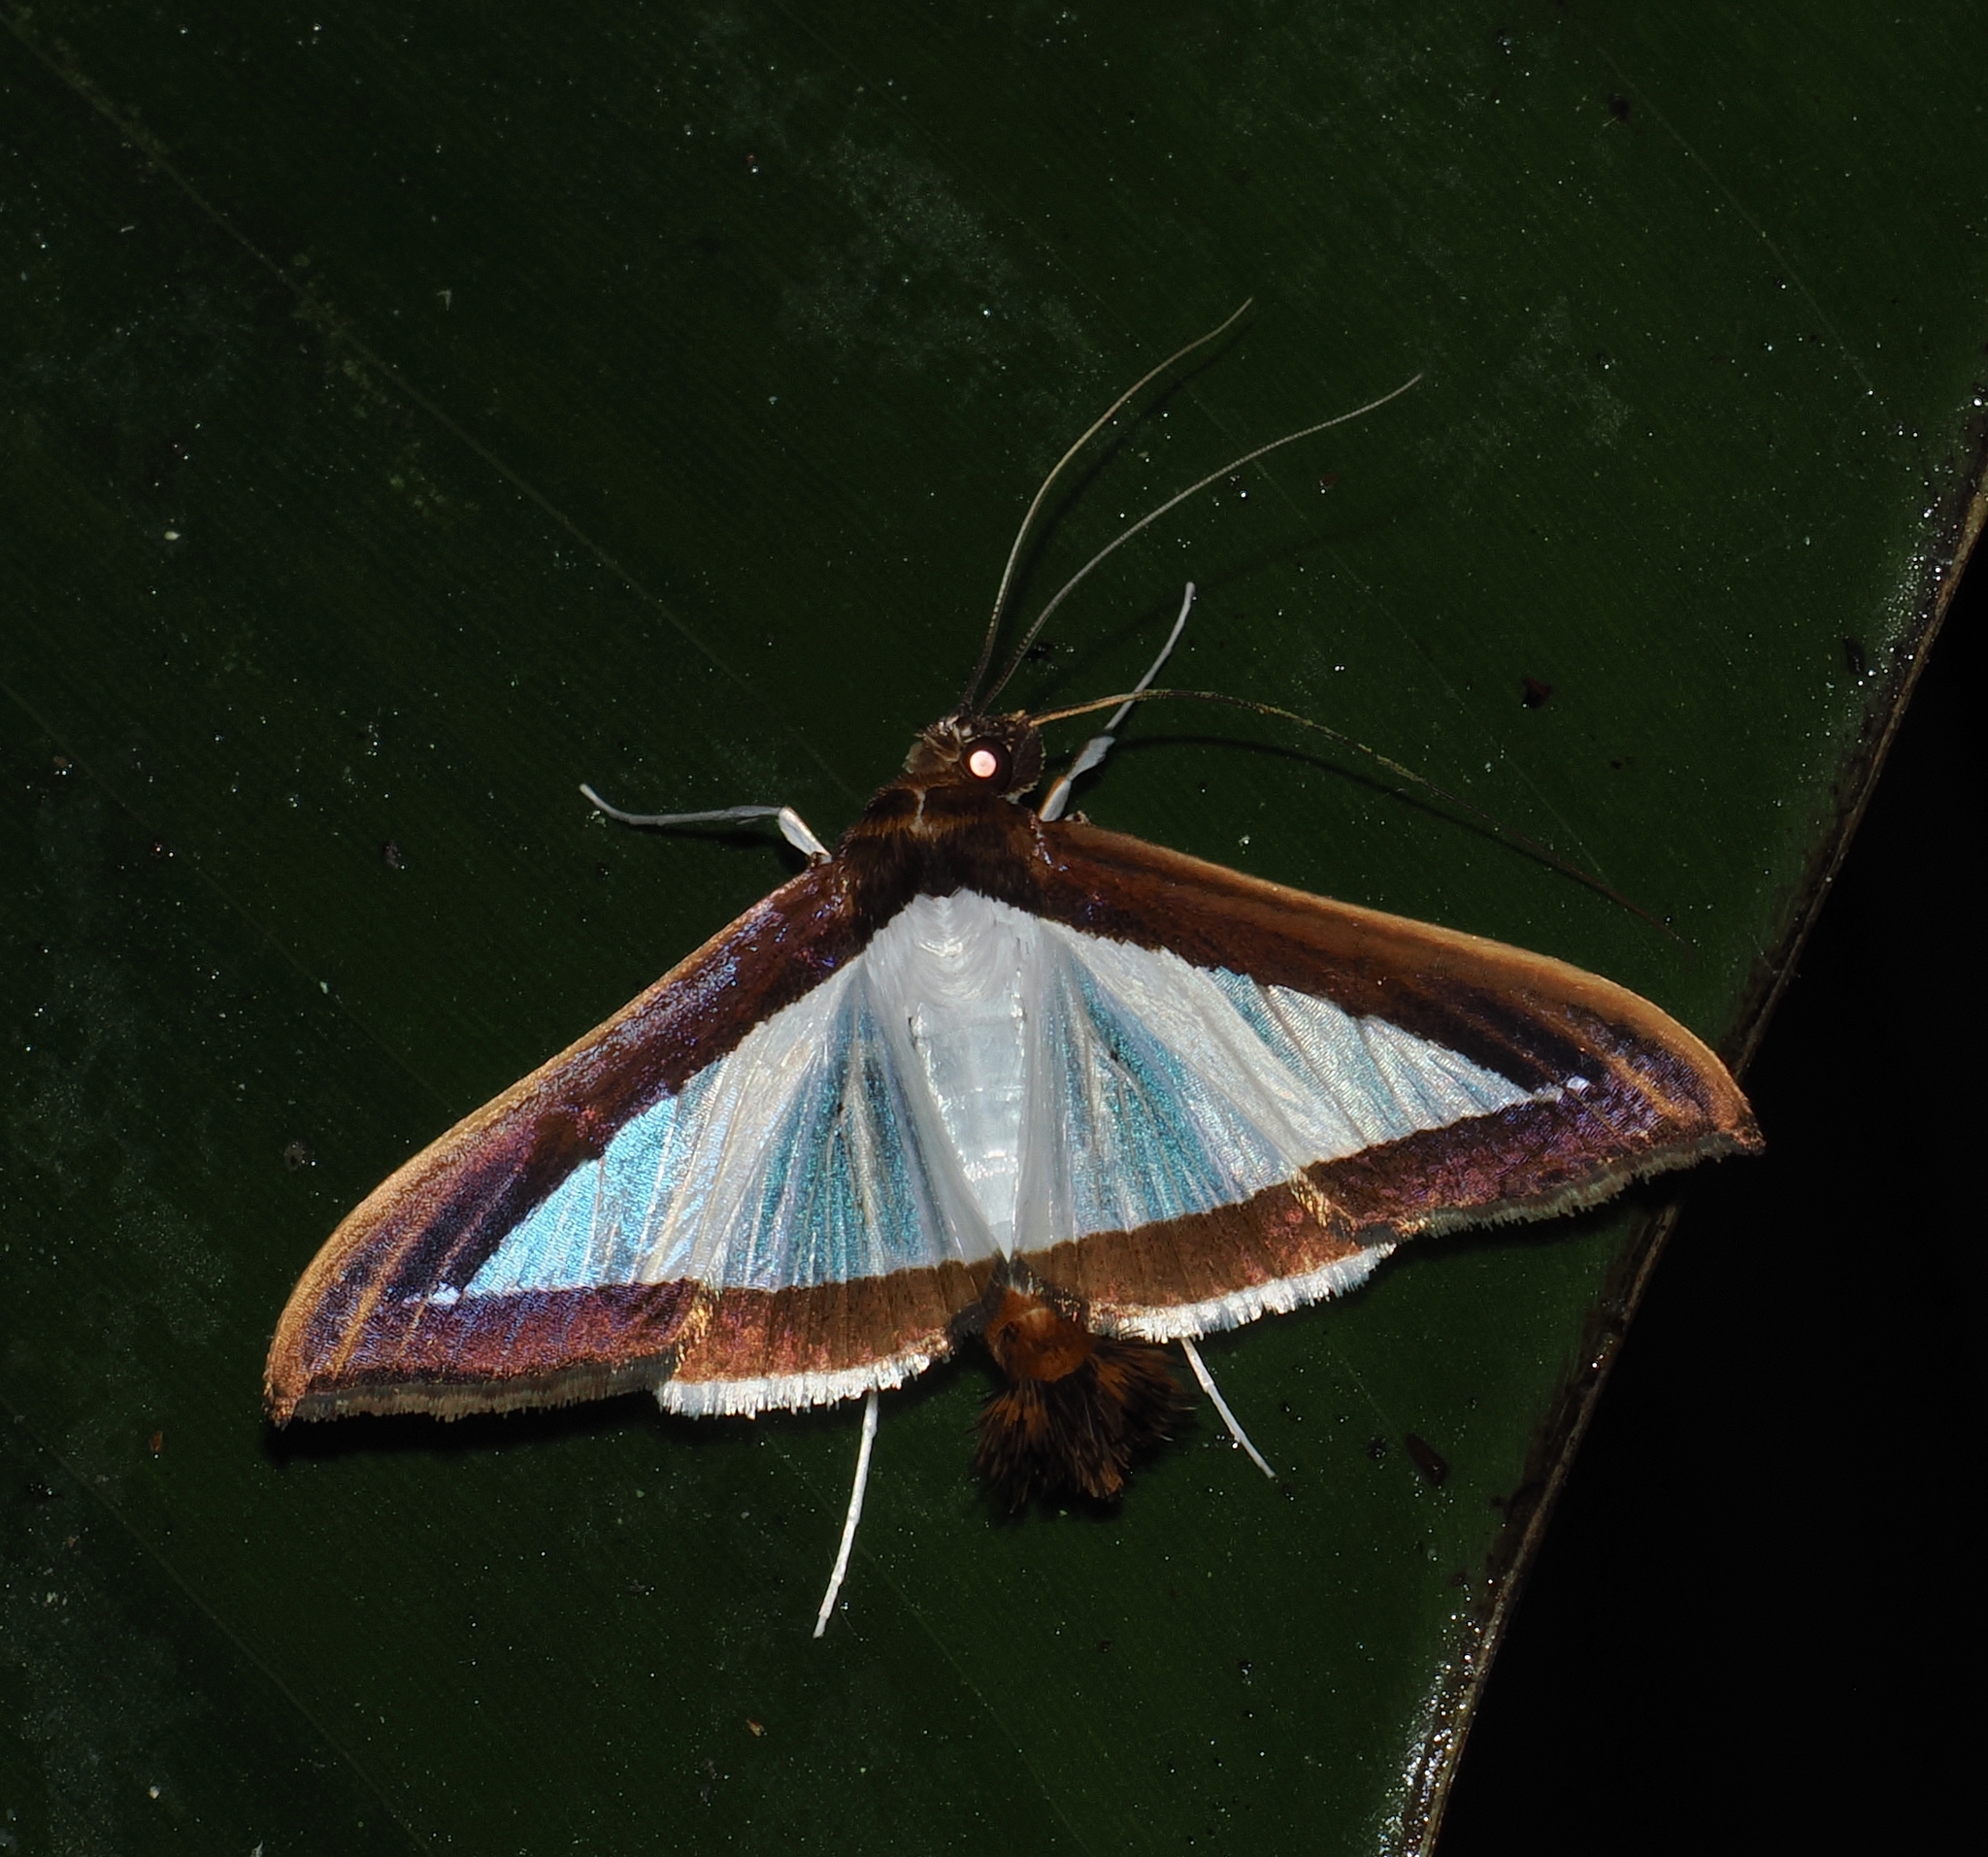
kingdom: Animalia
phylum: Arthropoda
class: Insecta
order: Lepidoptera
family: Crambidae
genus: Diaphania
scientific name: Diaphania
